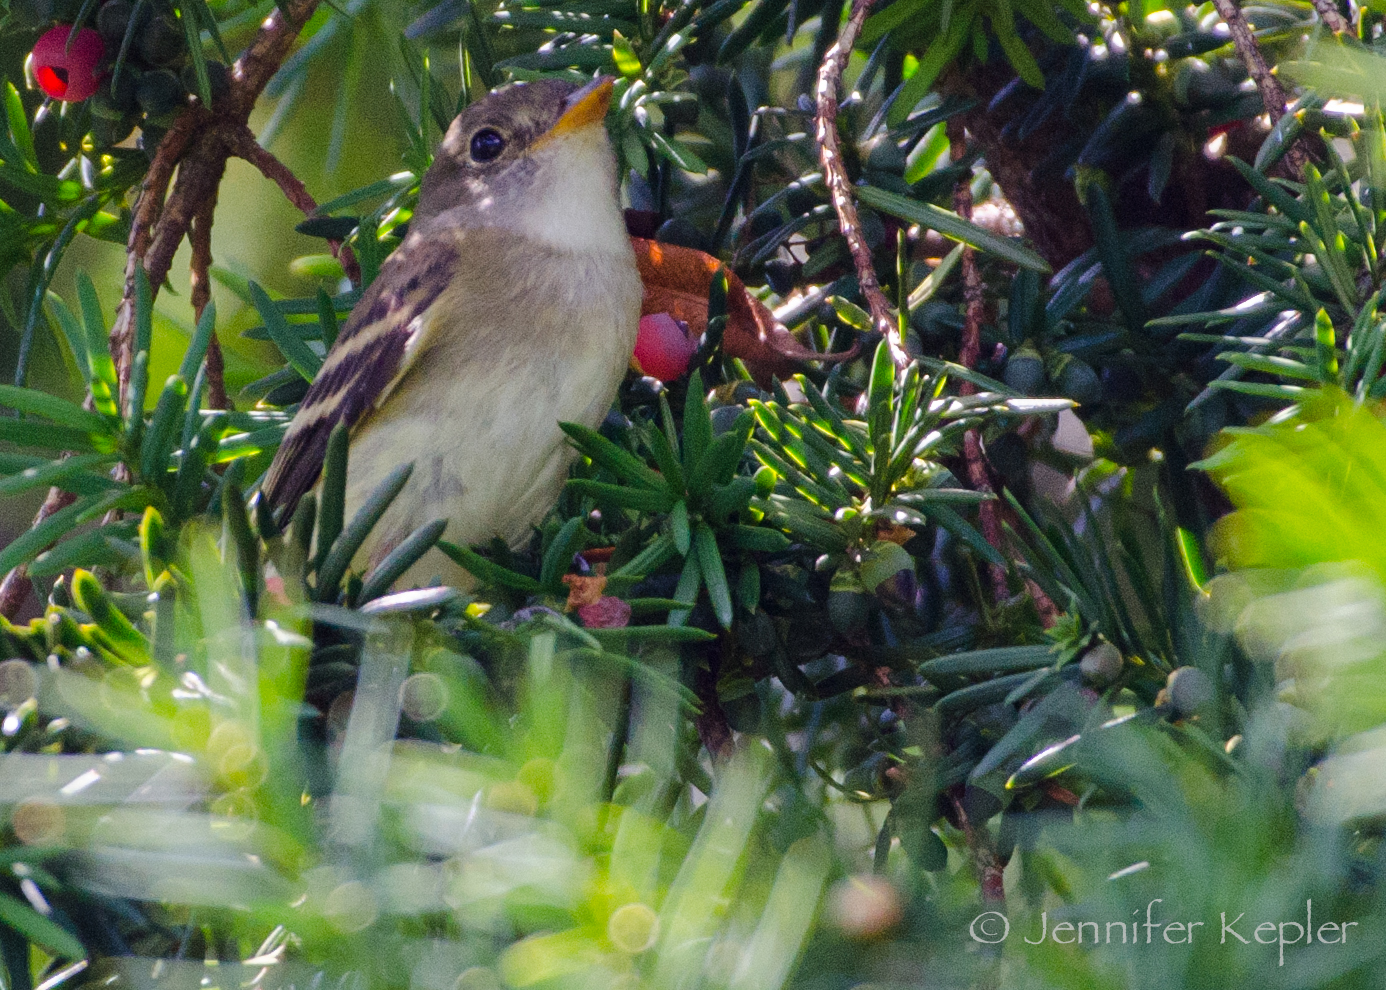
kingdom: Animalia
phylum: Chordata
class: Aves
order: Passeriformes
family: Tyrannidae
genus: Empidonax
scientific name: Empidonax minimus
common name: Least flycatcher
